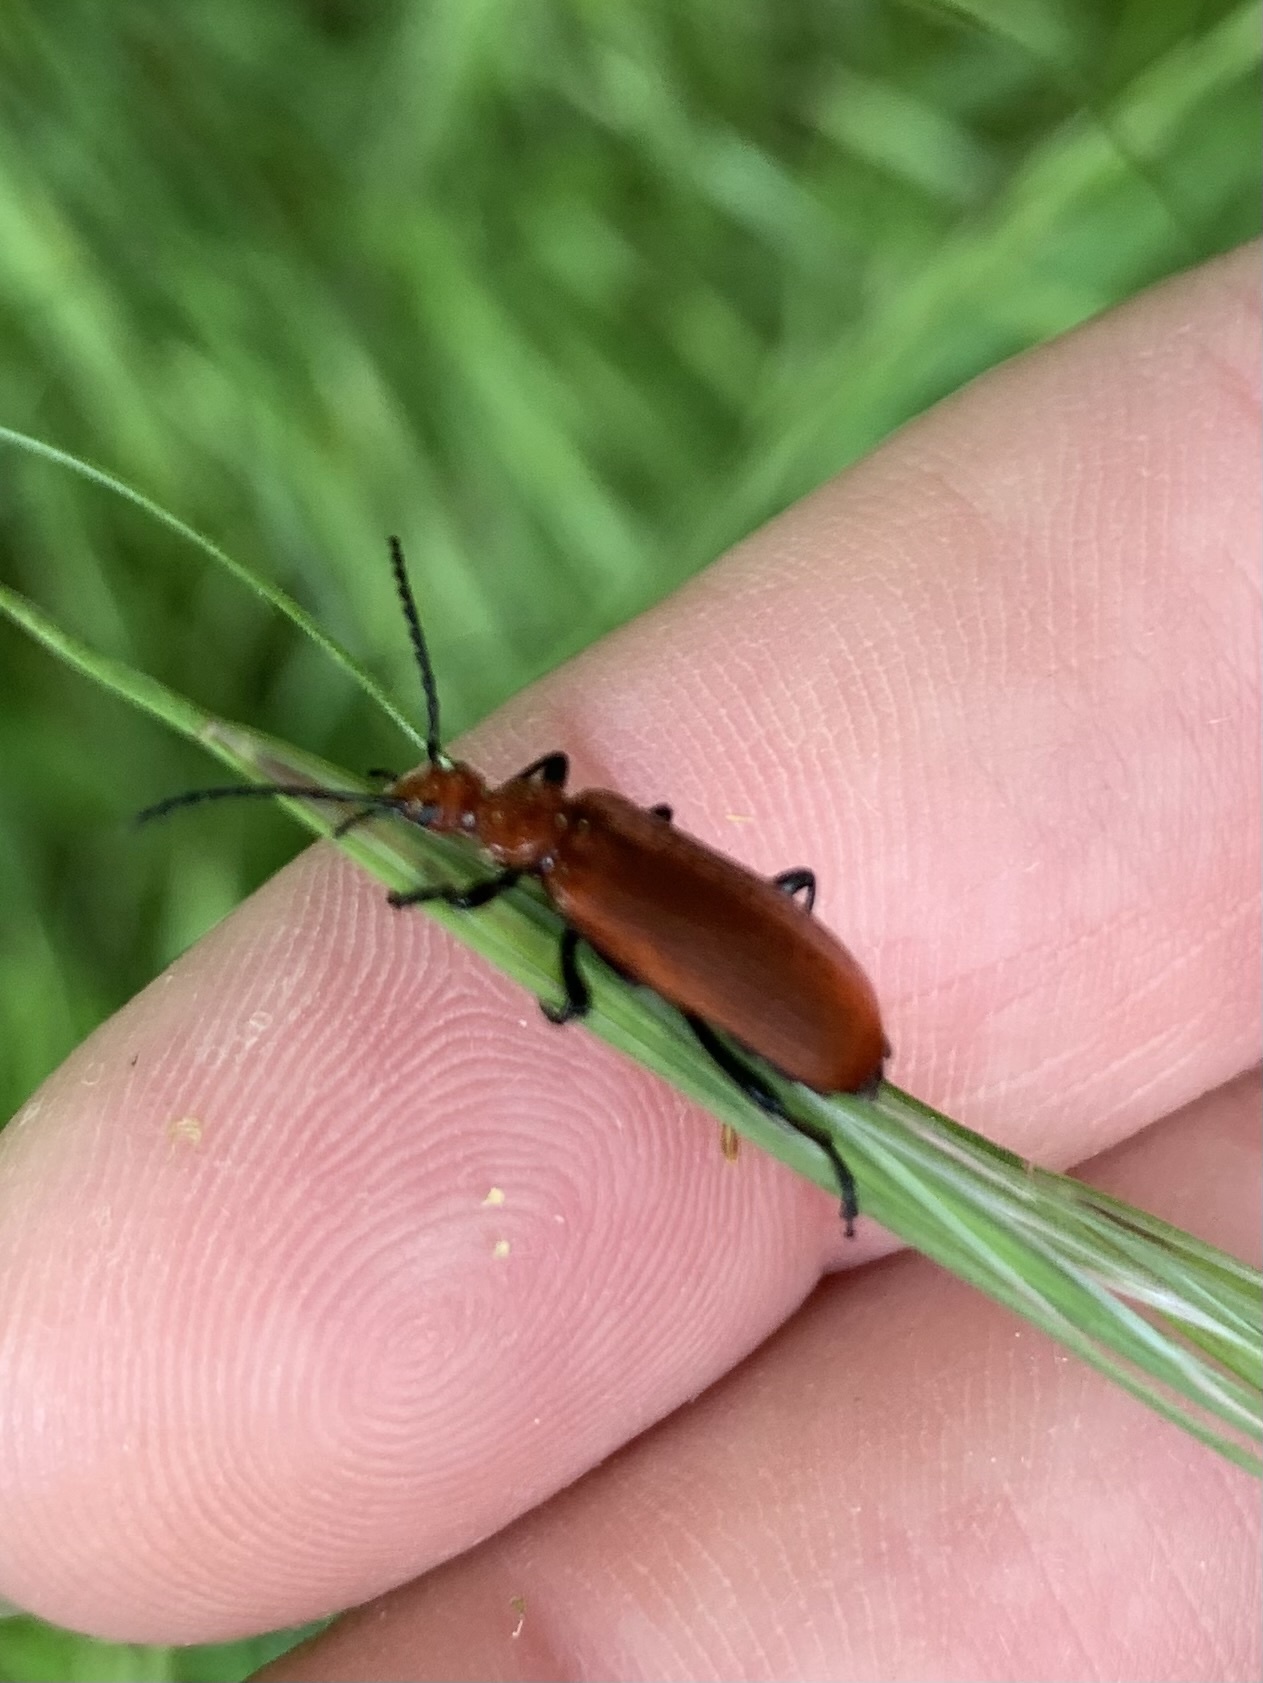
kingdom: Animalia
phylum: Arthropoda
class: Insecta
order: Coleoptera
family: Pyrochroidae
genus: Pyrochroa
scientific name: Pyrochroa serraticornis
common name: Red-headed cardinal beetle
